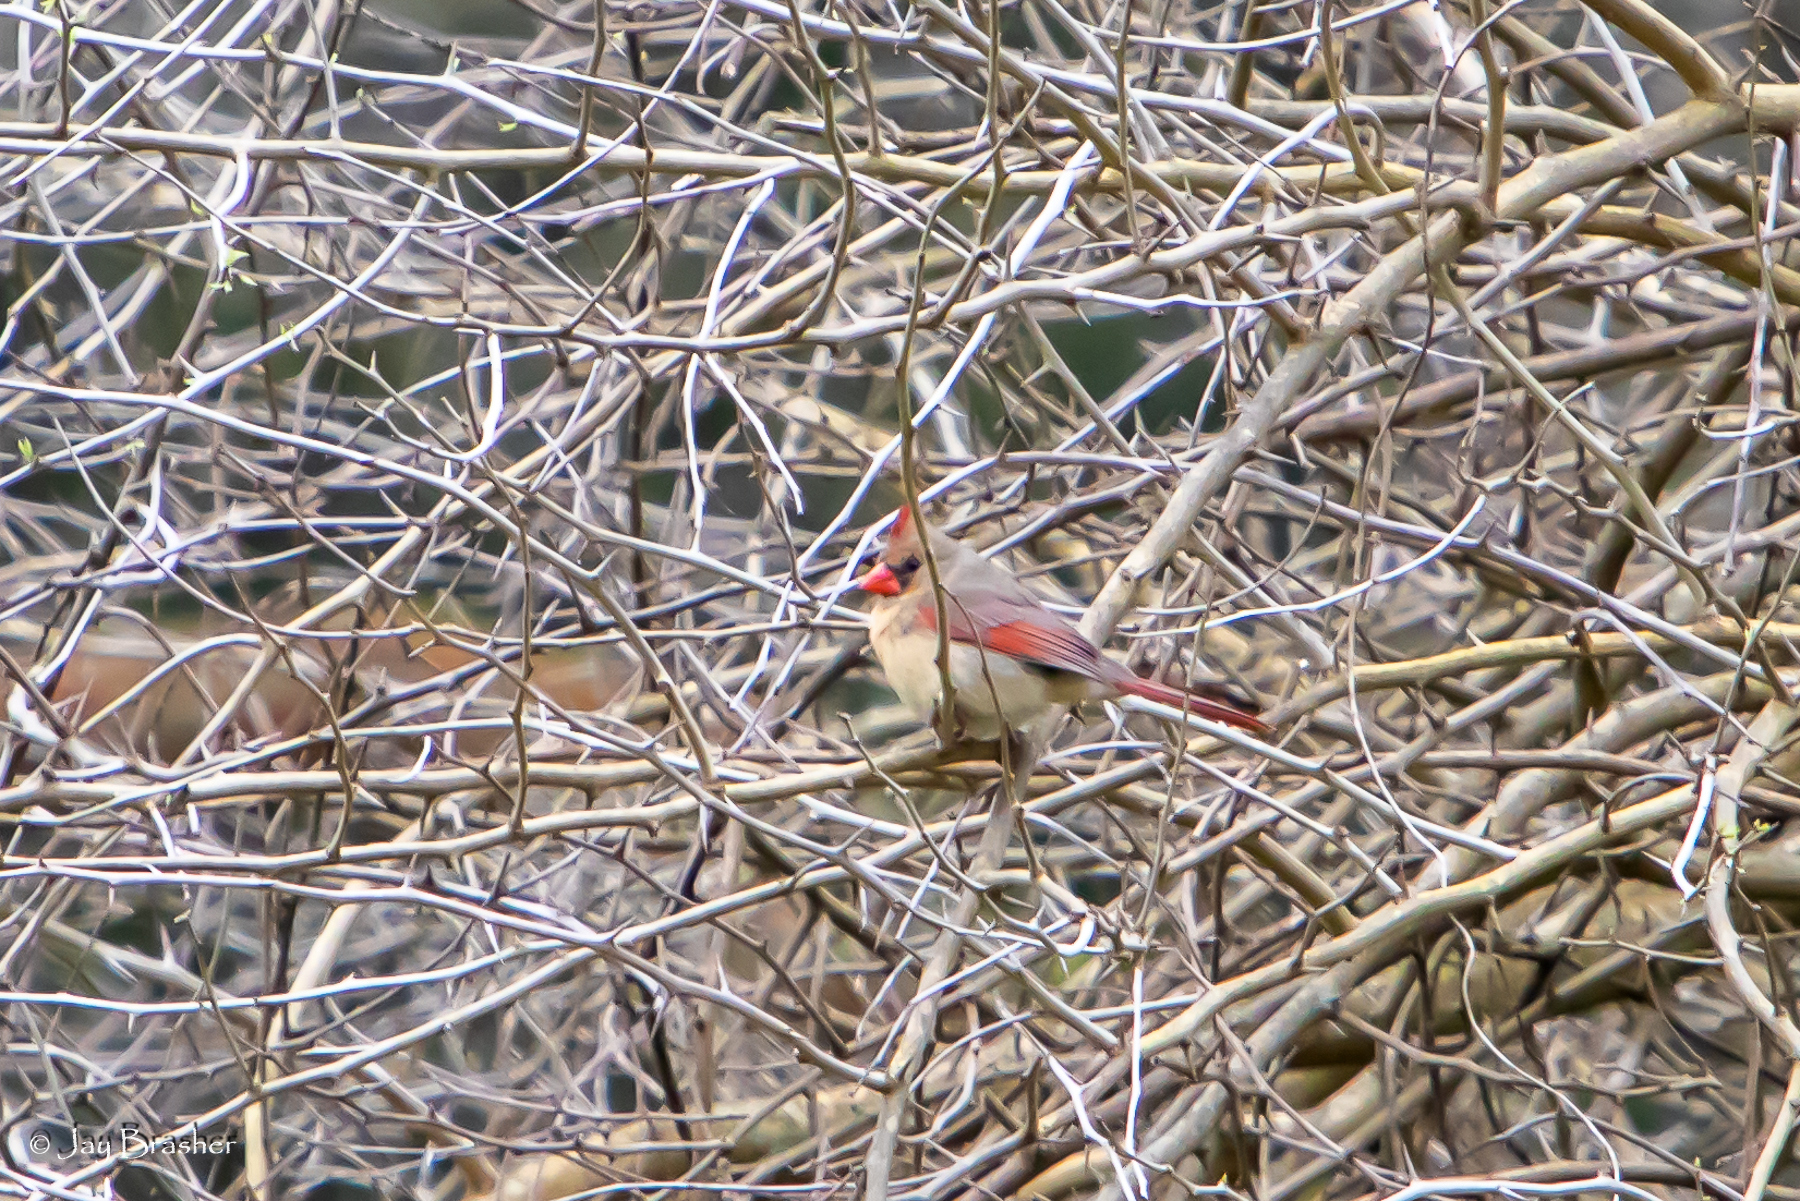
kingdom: Animalia
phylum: Chordata
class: Aves
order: Passeriformes
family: Cardinalidae
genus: Cardinalis
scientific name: Cardinalis cardinalis
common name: Northern cardinal
